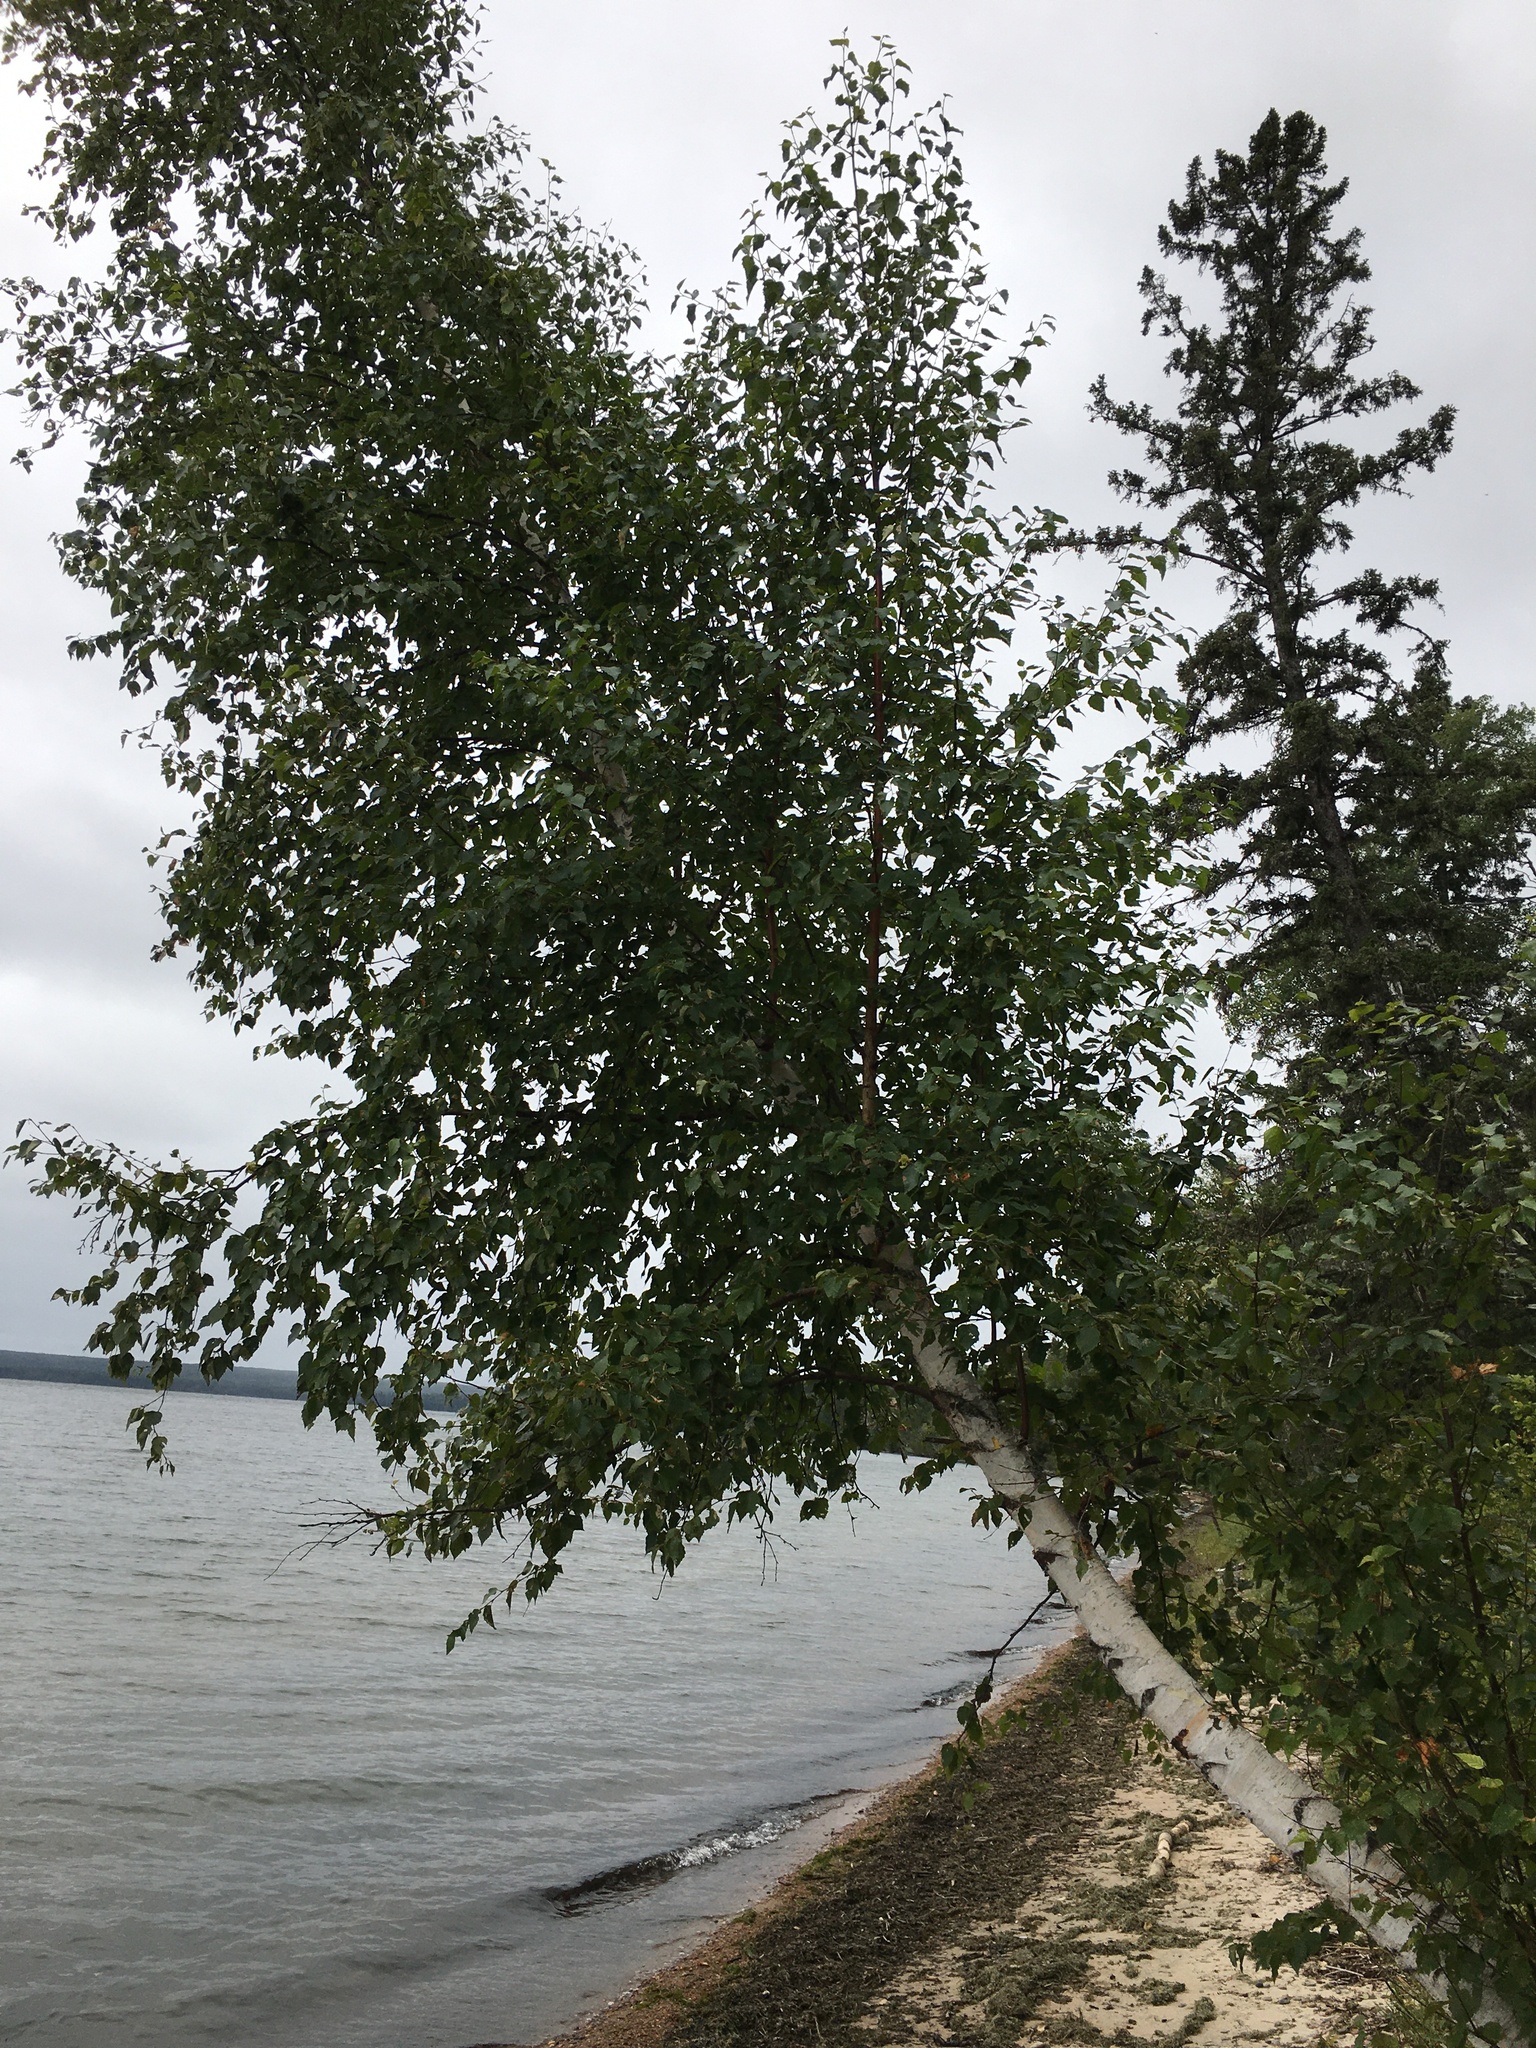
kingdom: Plantae
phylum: Tracheophyta
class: Magnoliopsida
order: Fagales
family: Betulaceae
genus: Betula
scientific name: Betula papyrifera
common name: Paper birch
